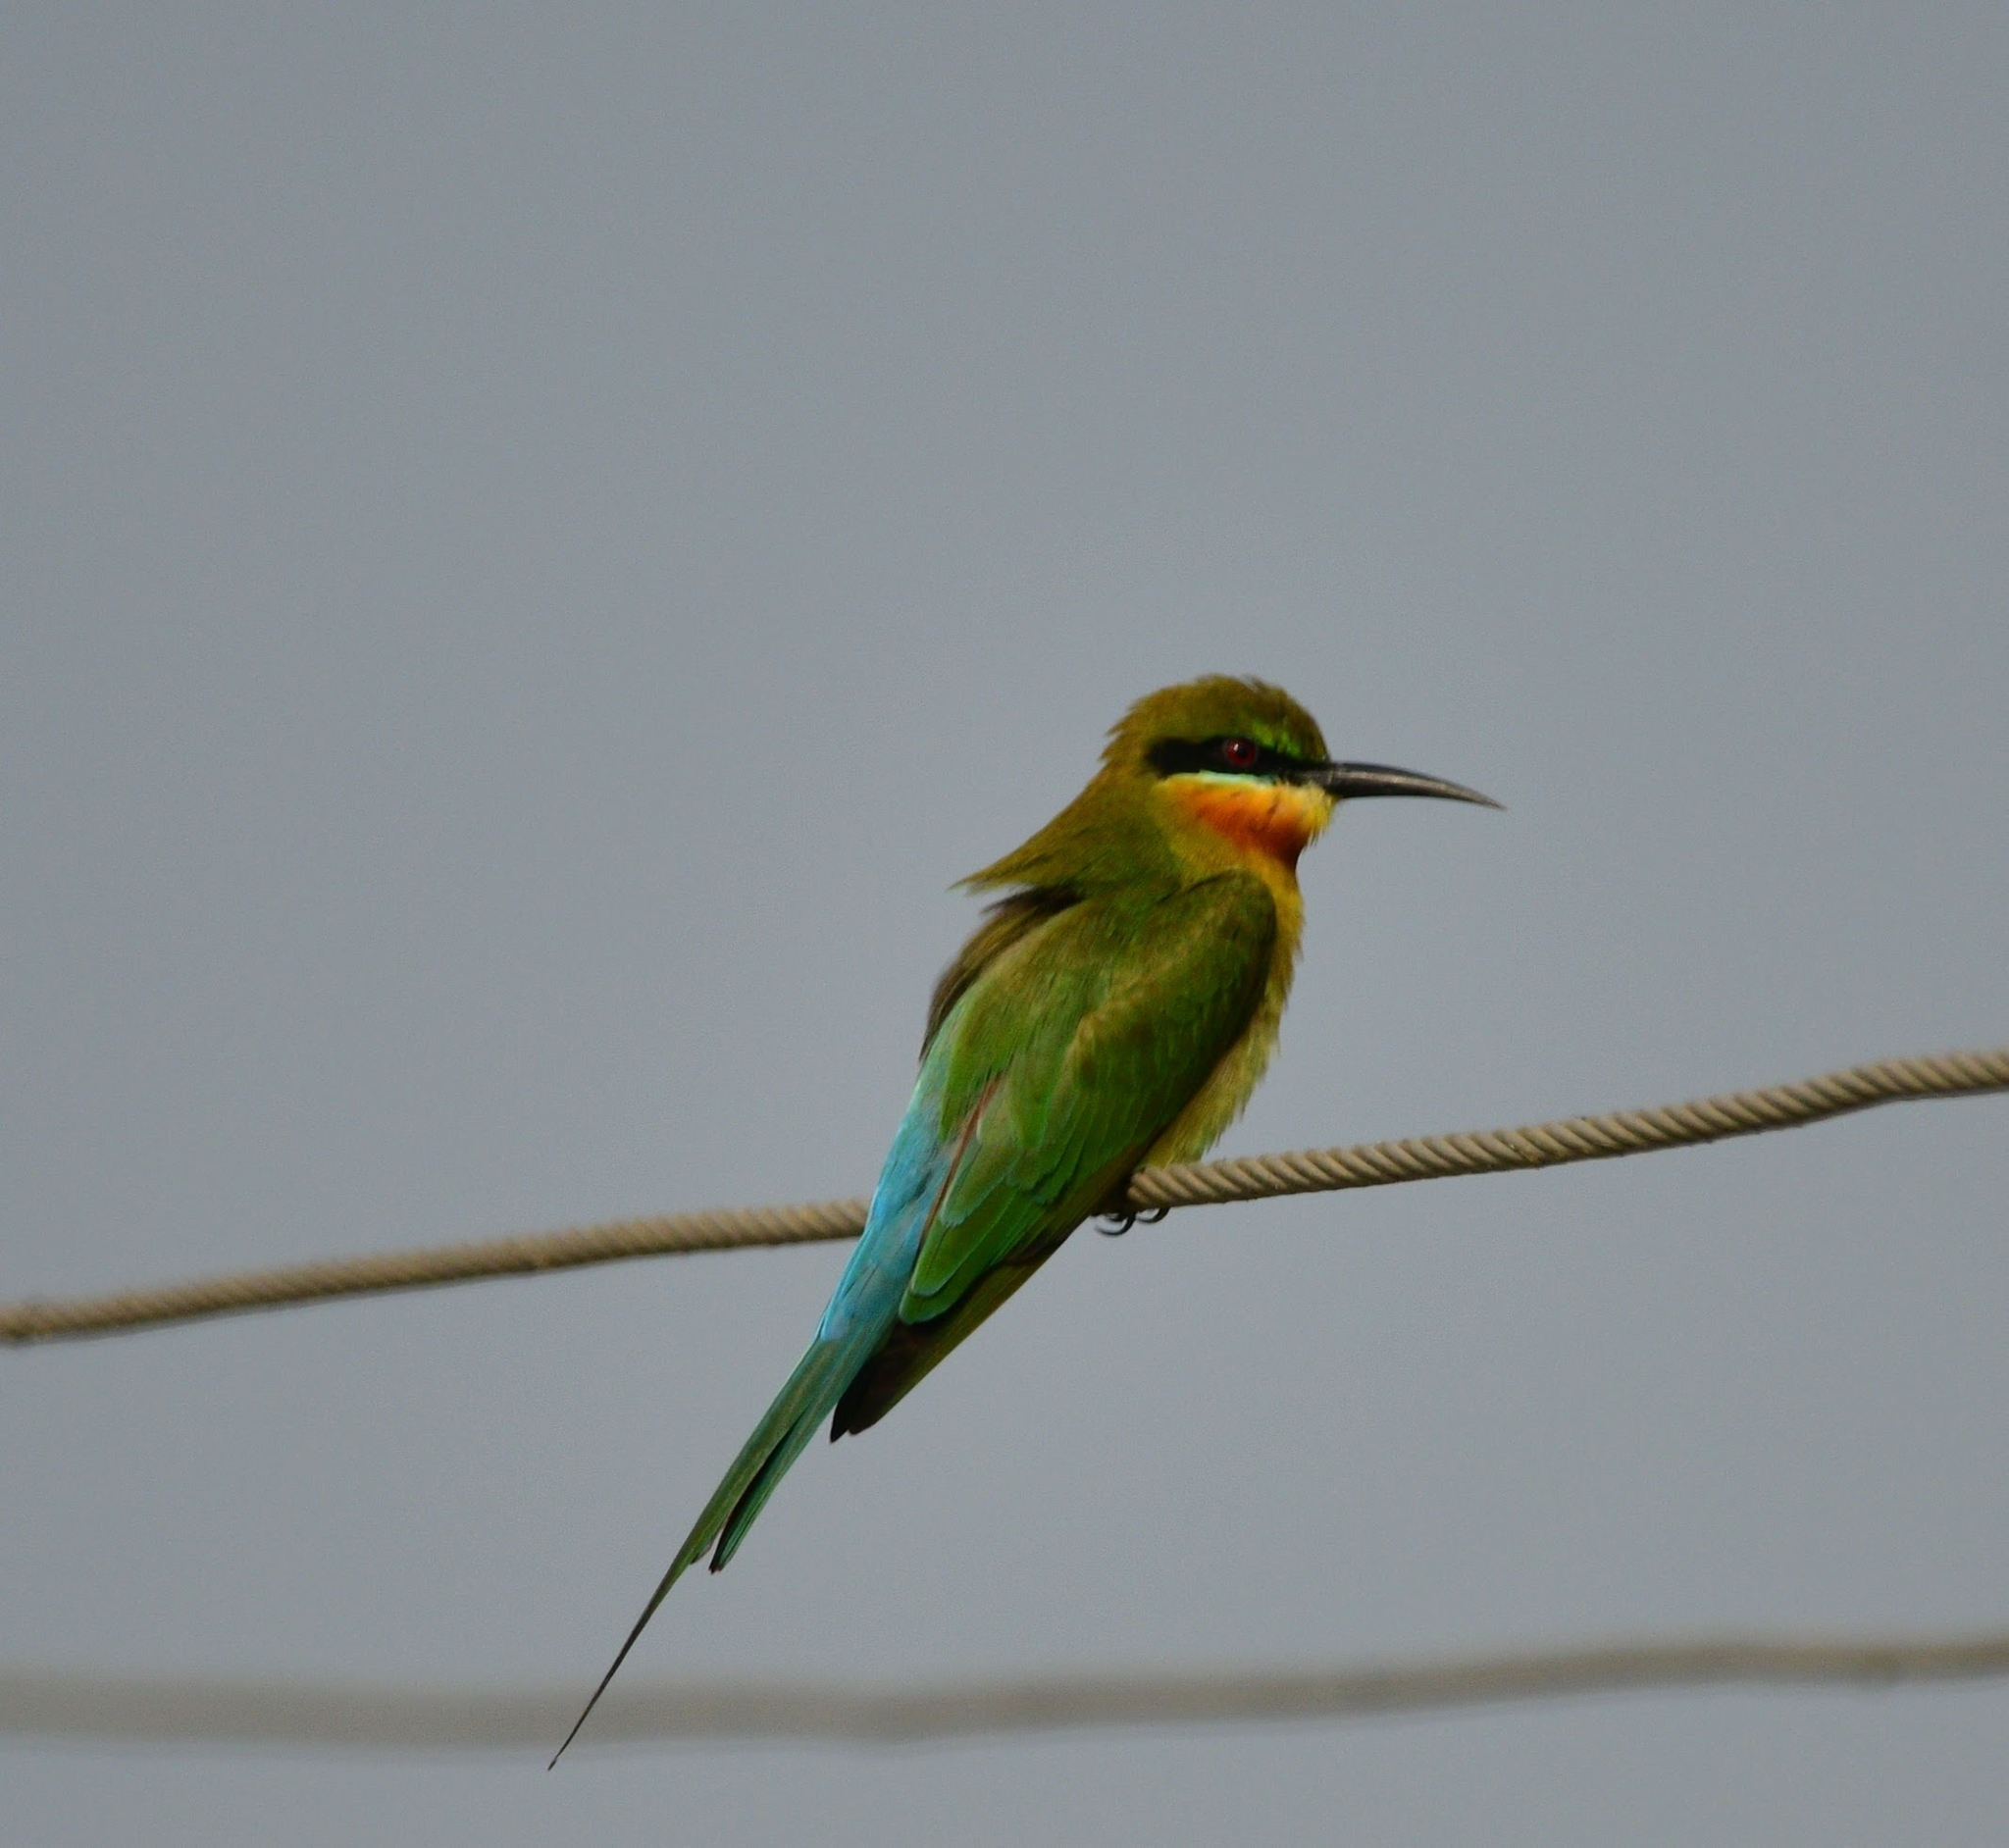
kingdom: Animalia
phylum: Chordata
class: Aves
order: Coraciiformes
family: Meropidae
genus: Merops
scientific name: Merops philippinus
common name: Blue-tailed bee-eater
